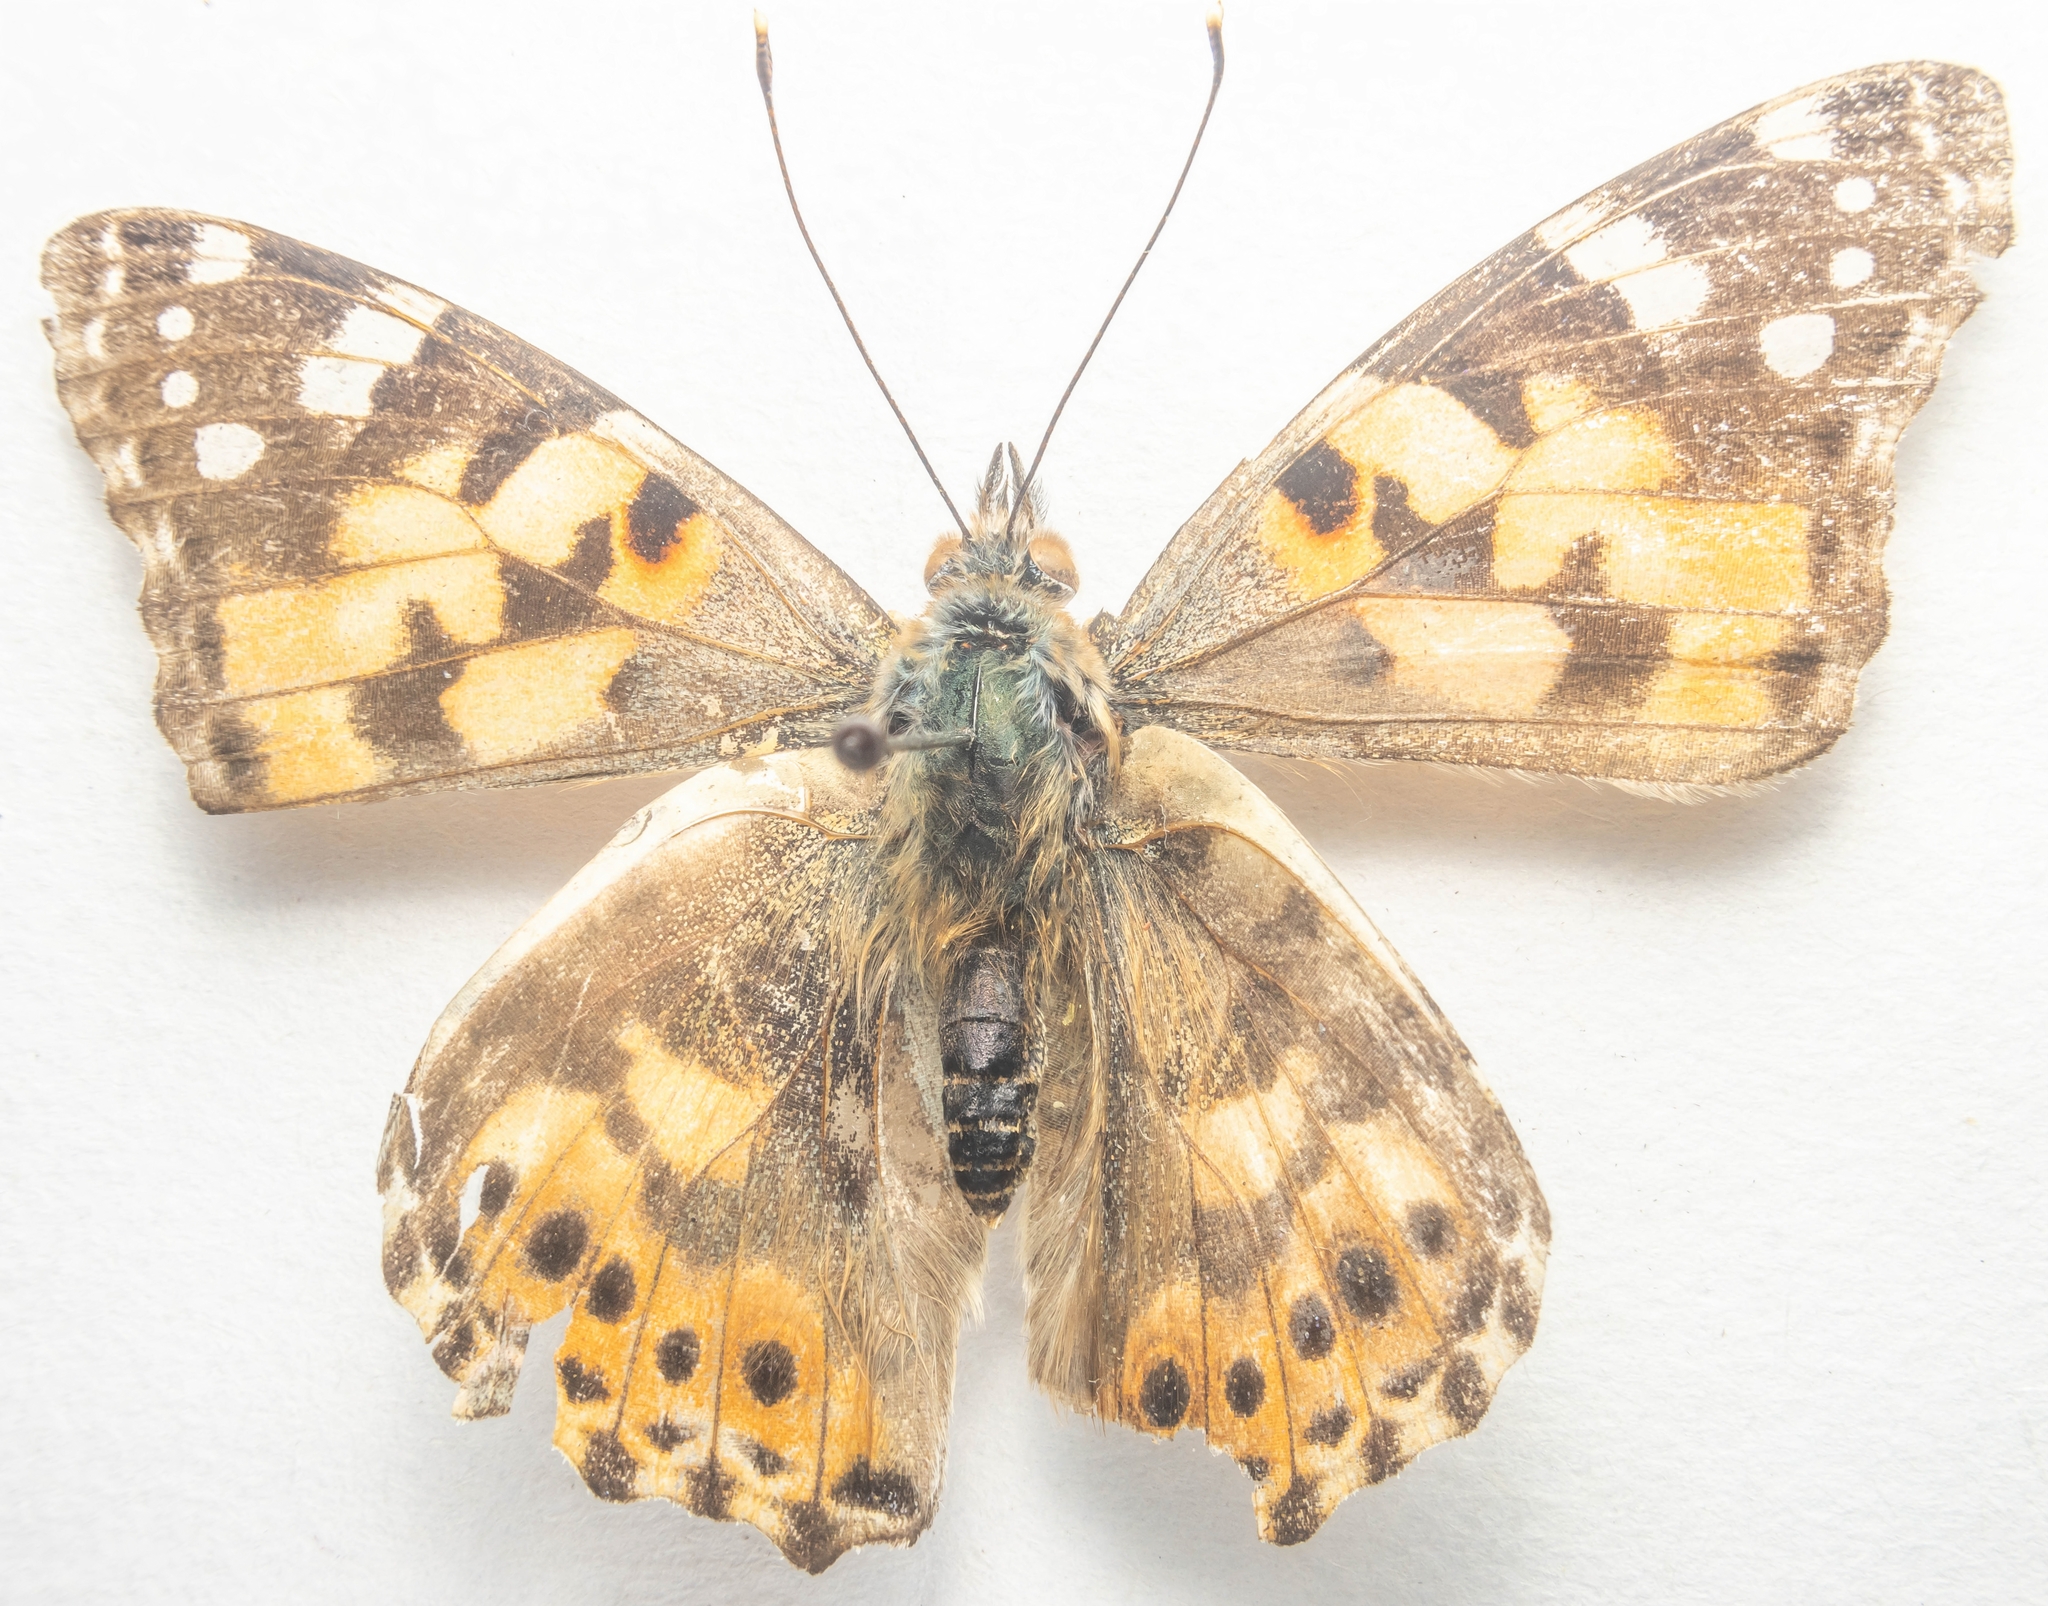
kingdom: Animalia
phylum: Arthropoda
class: Insecta
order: Lepidoptera
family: Nymphalidae
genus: Vanessa
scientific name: Vanessa cardui
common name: Painted lady
